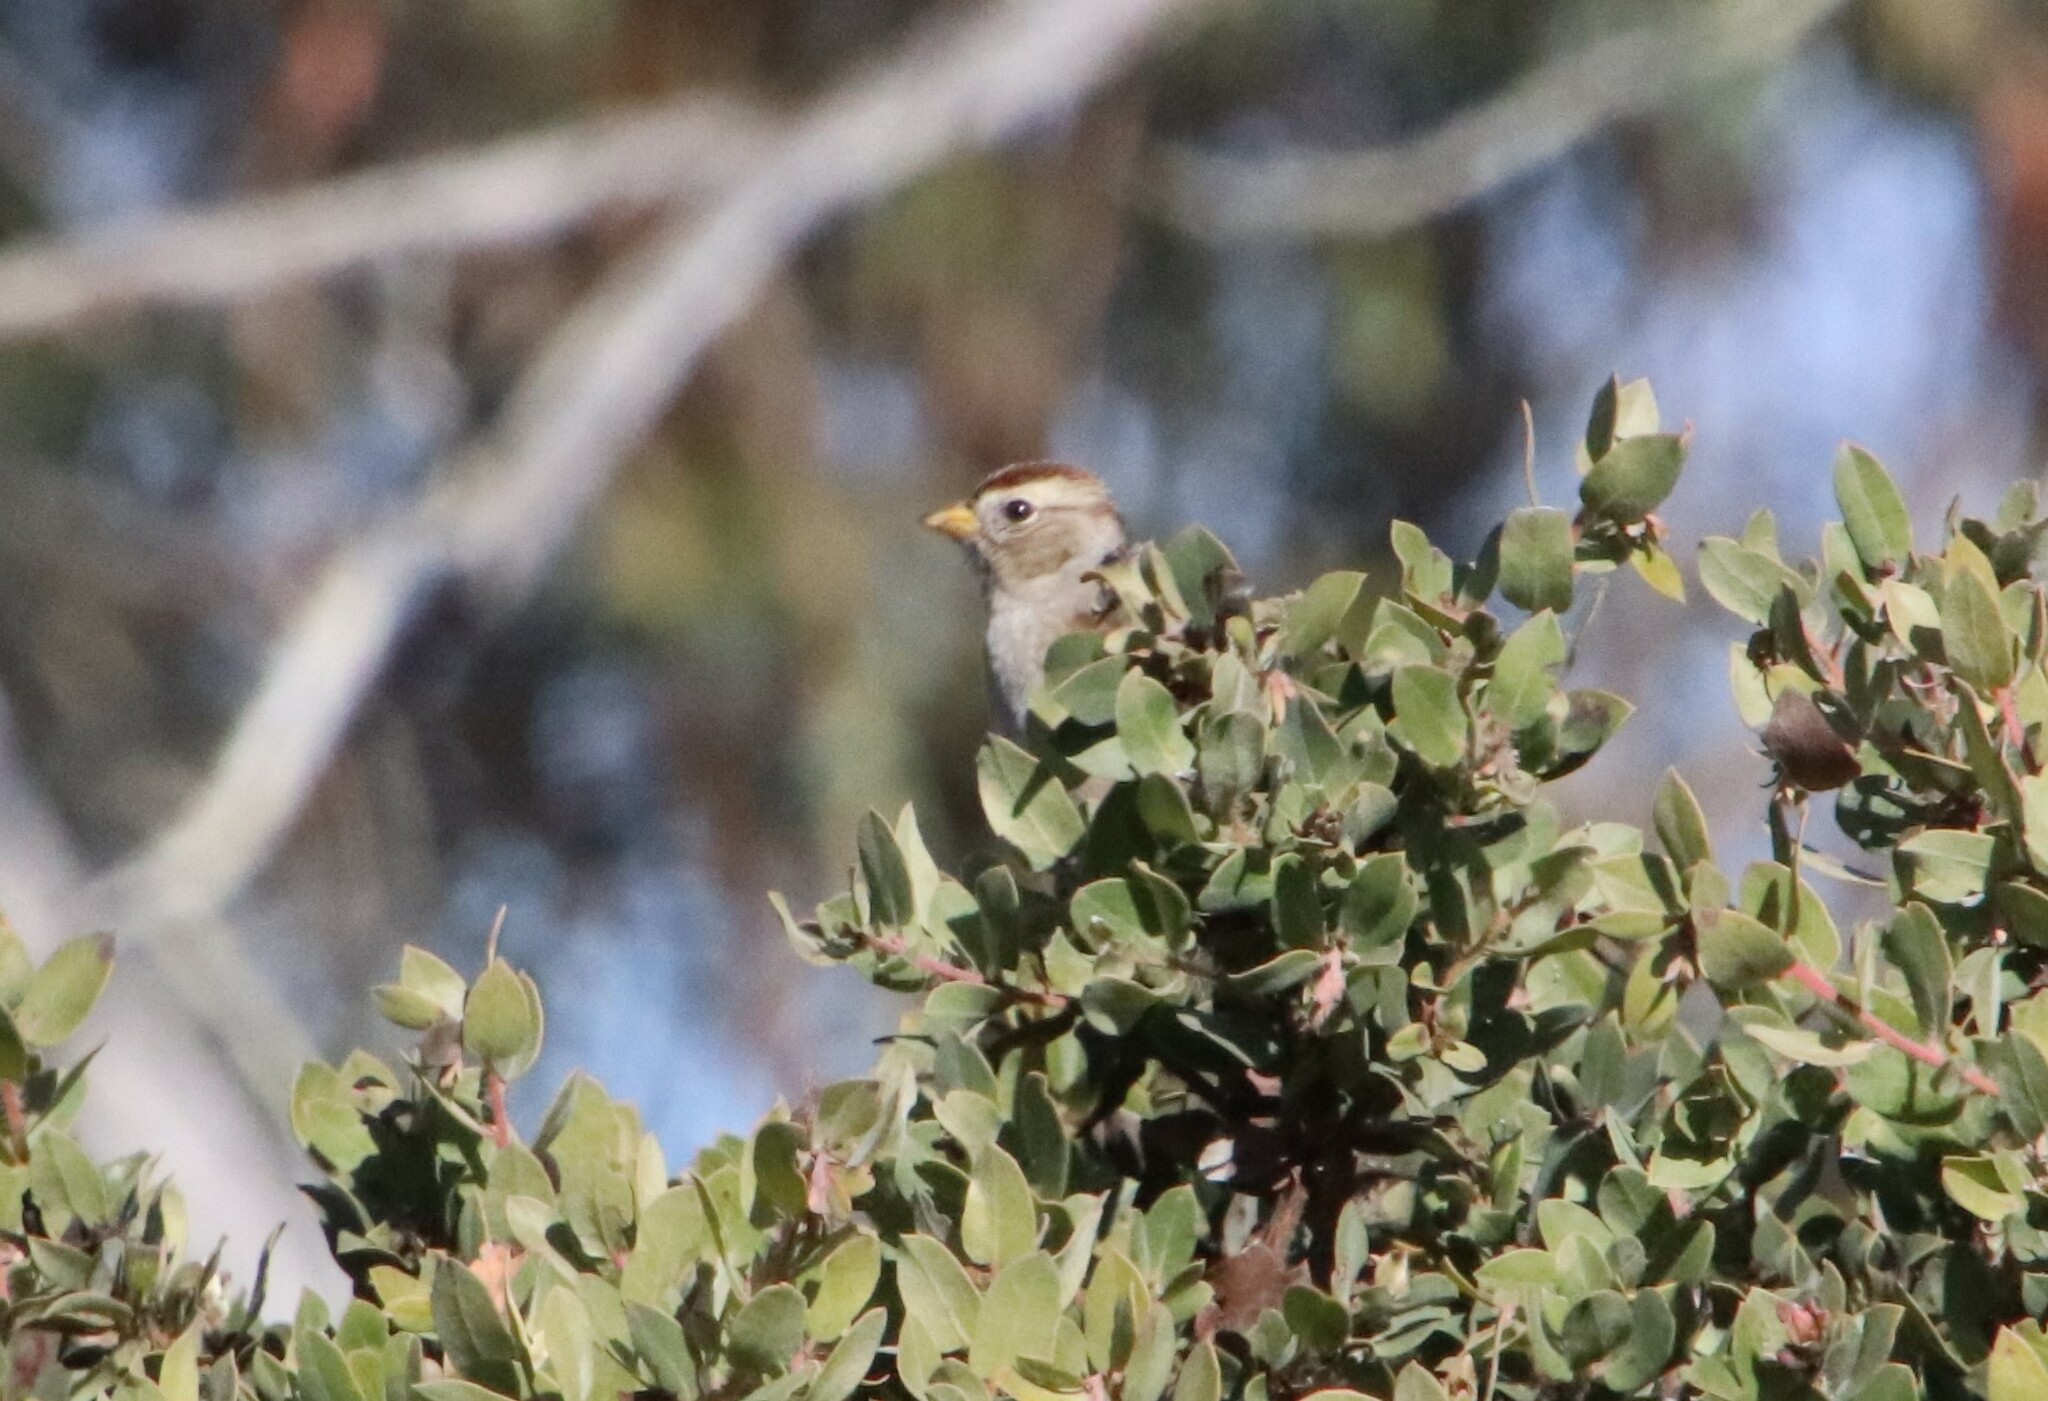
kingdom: Animalia
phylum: Chordata
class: Aves
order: Passeriformes
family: Passerellidae
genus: Zonotrichia
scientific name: Zonotrichia leucophrys
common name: White-crowned sparrow
